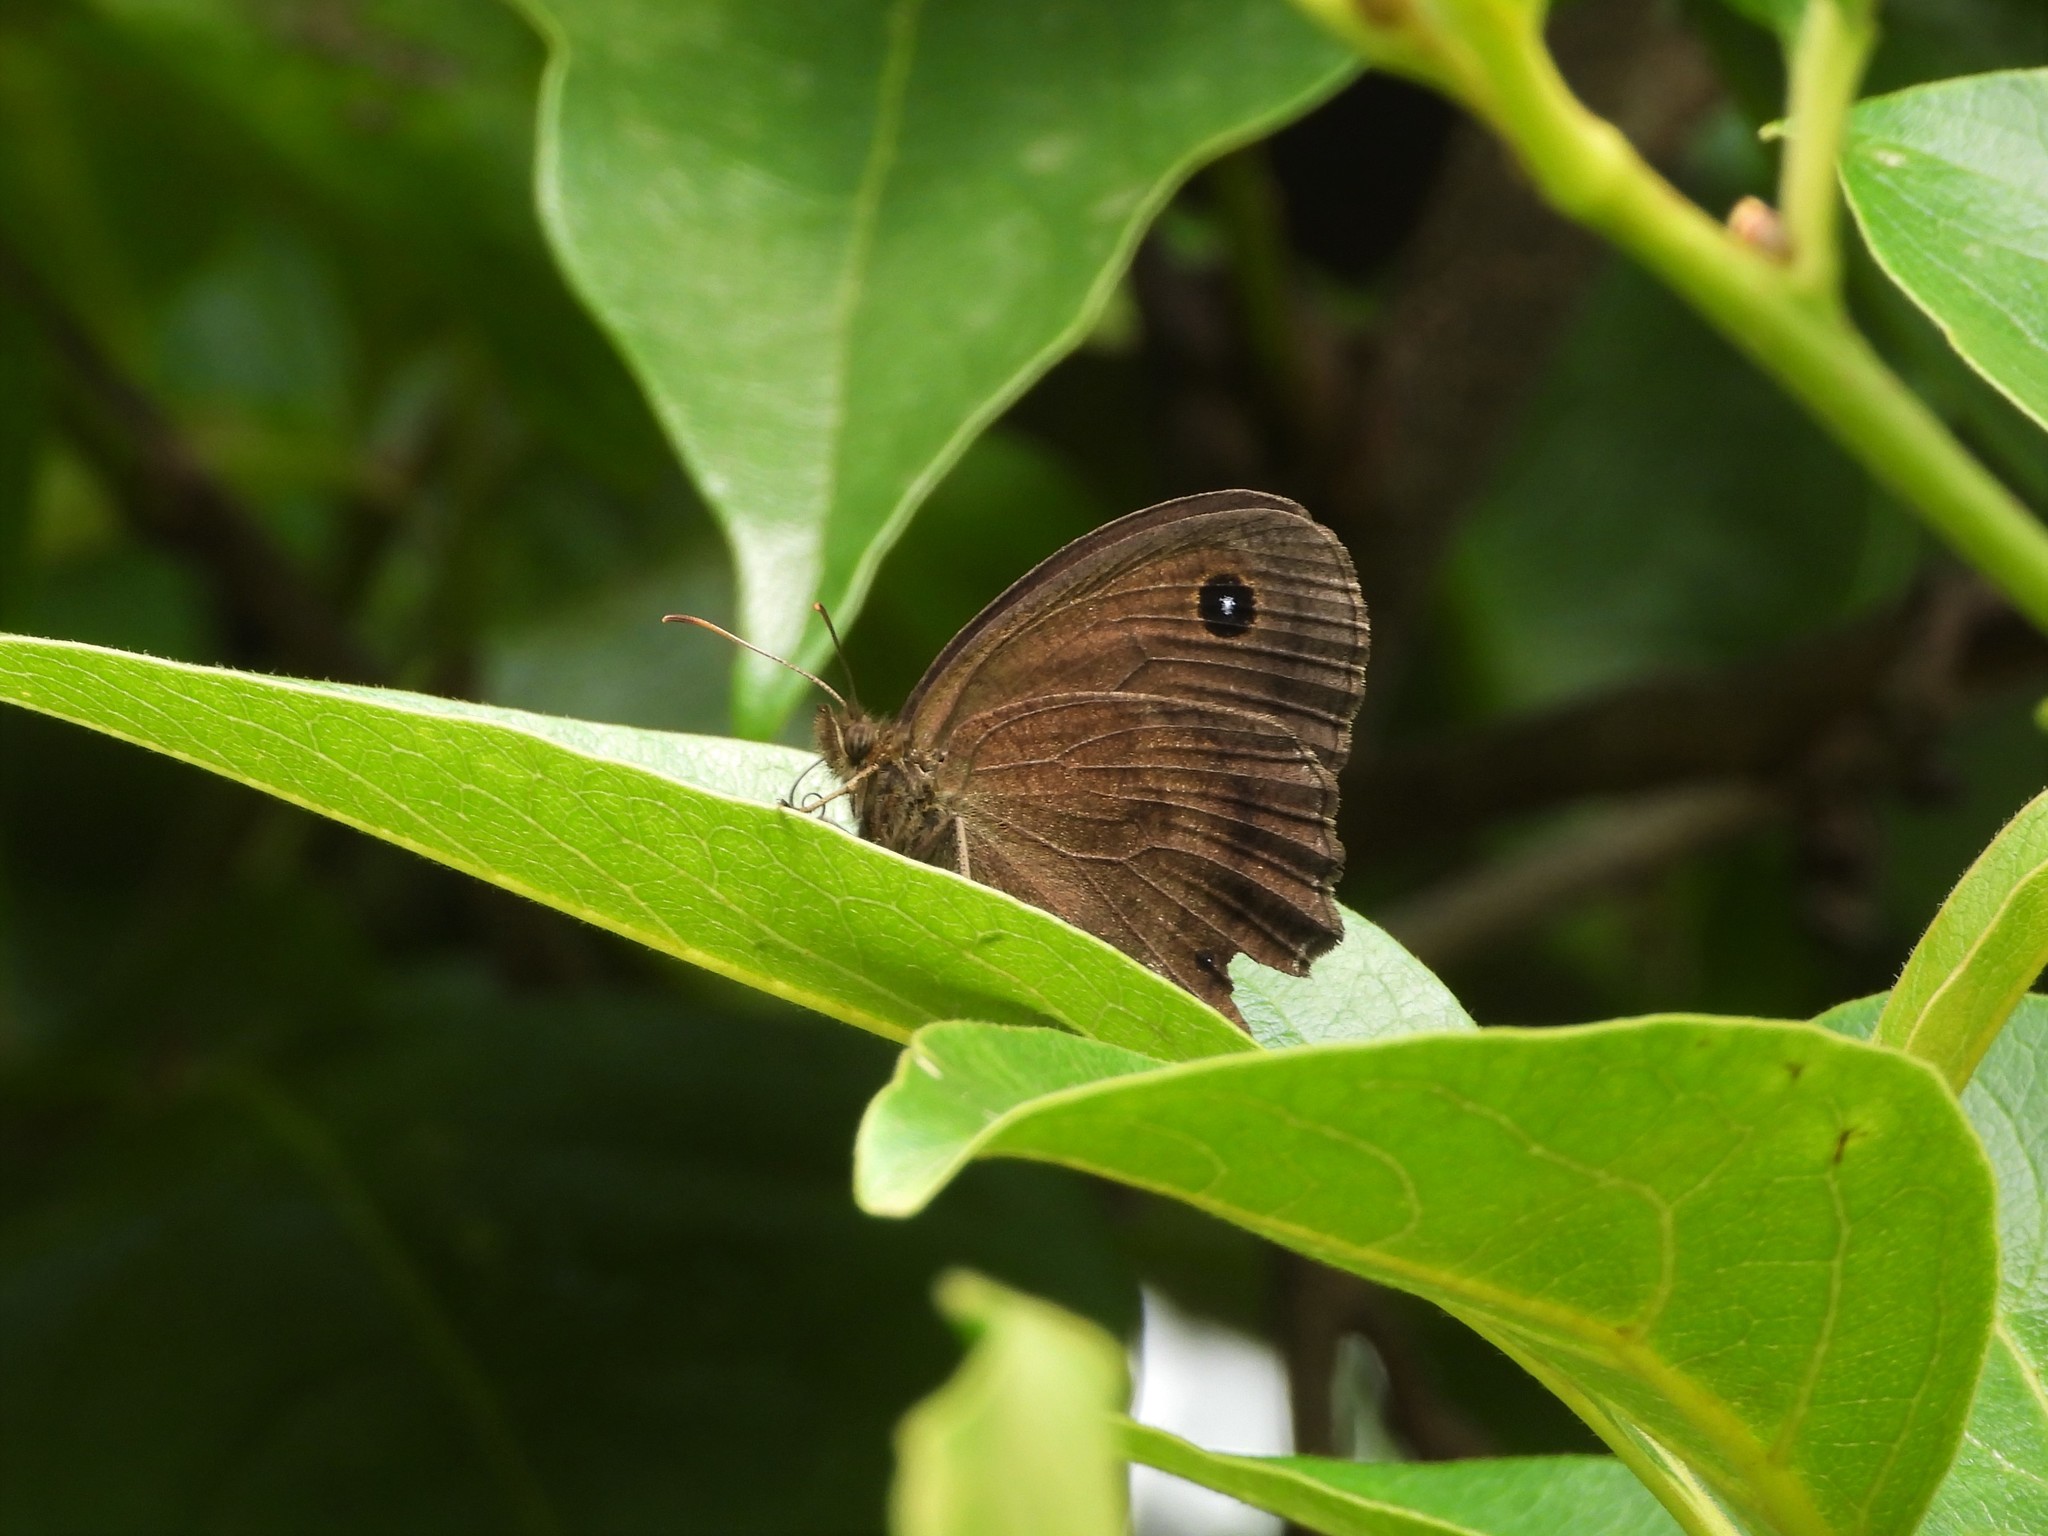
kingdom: Animalia
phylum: Arthropoda
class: Insecta
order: Lepidoptera
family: Nymphalidae
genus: Minois
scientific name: Minois dryas
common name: Dryad
